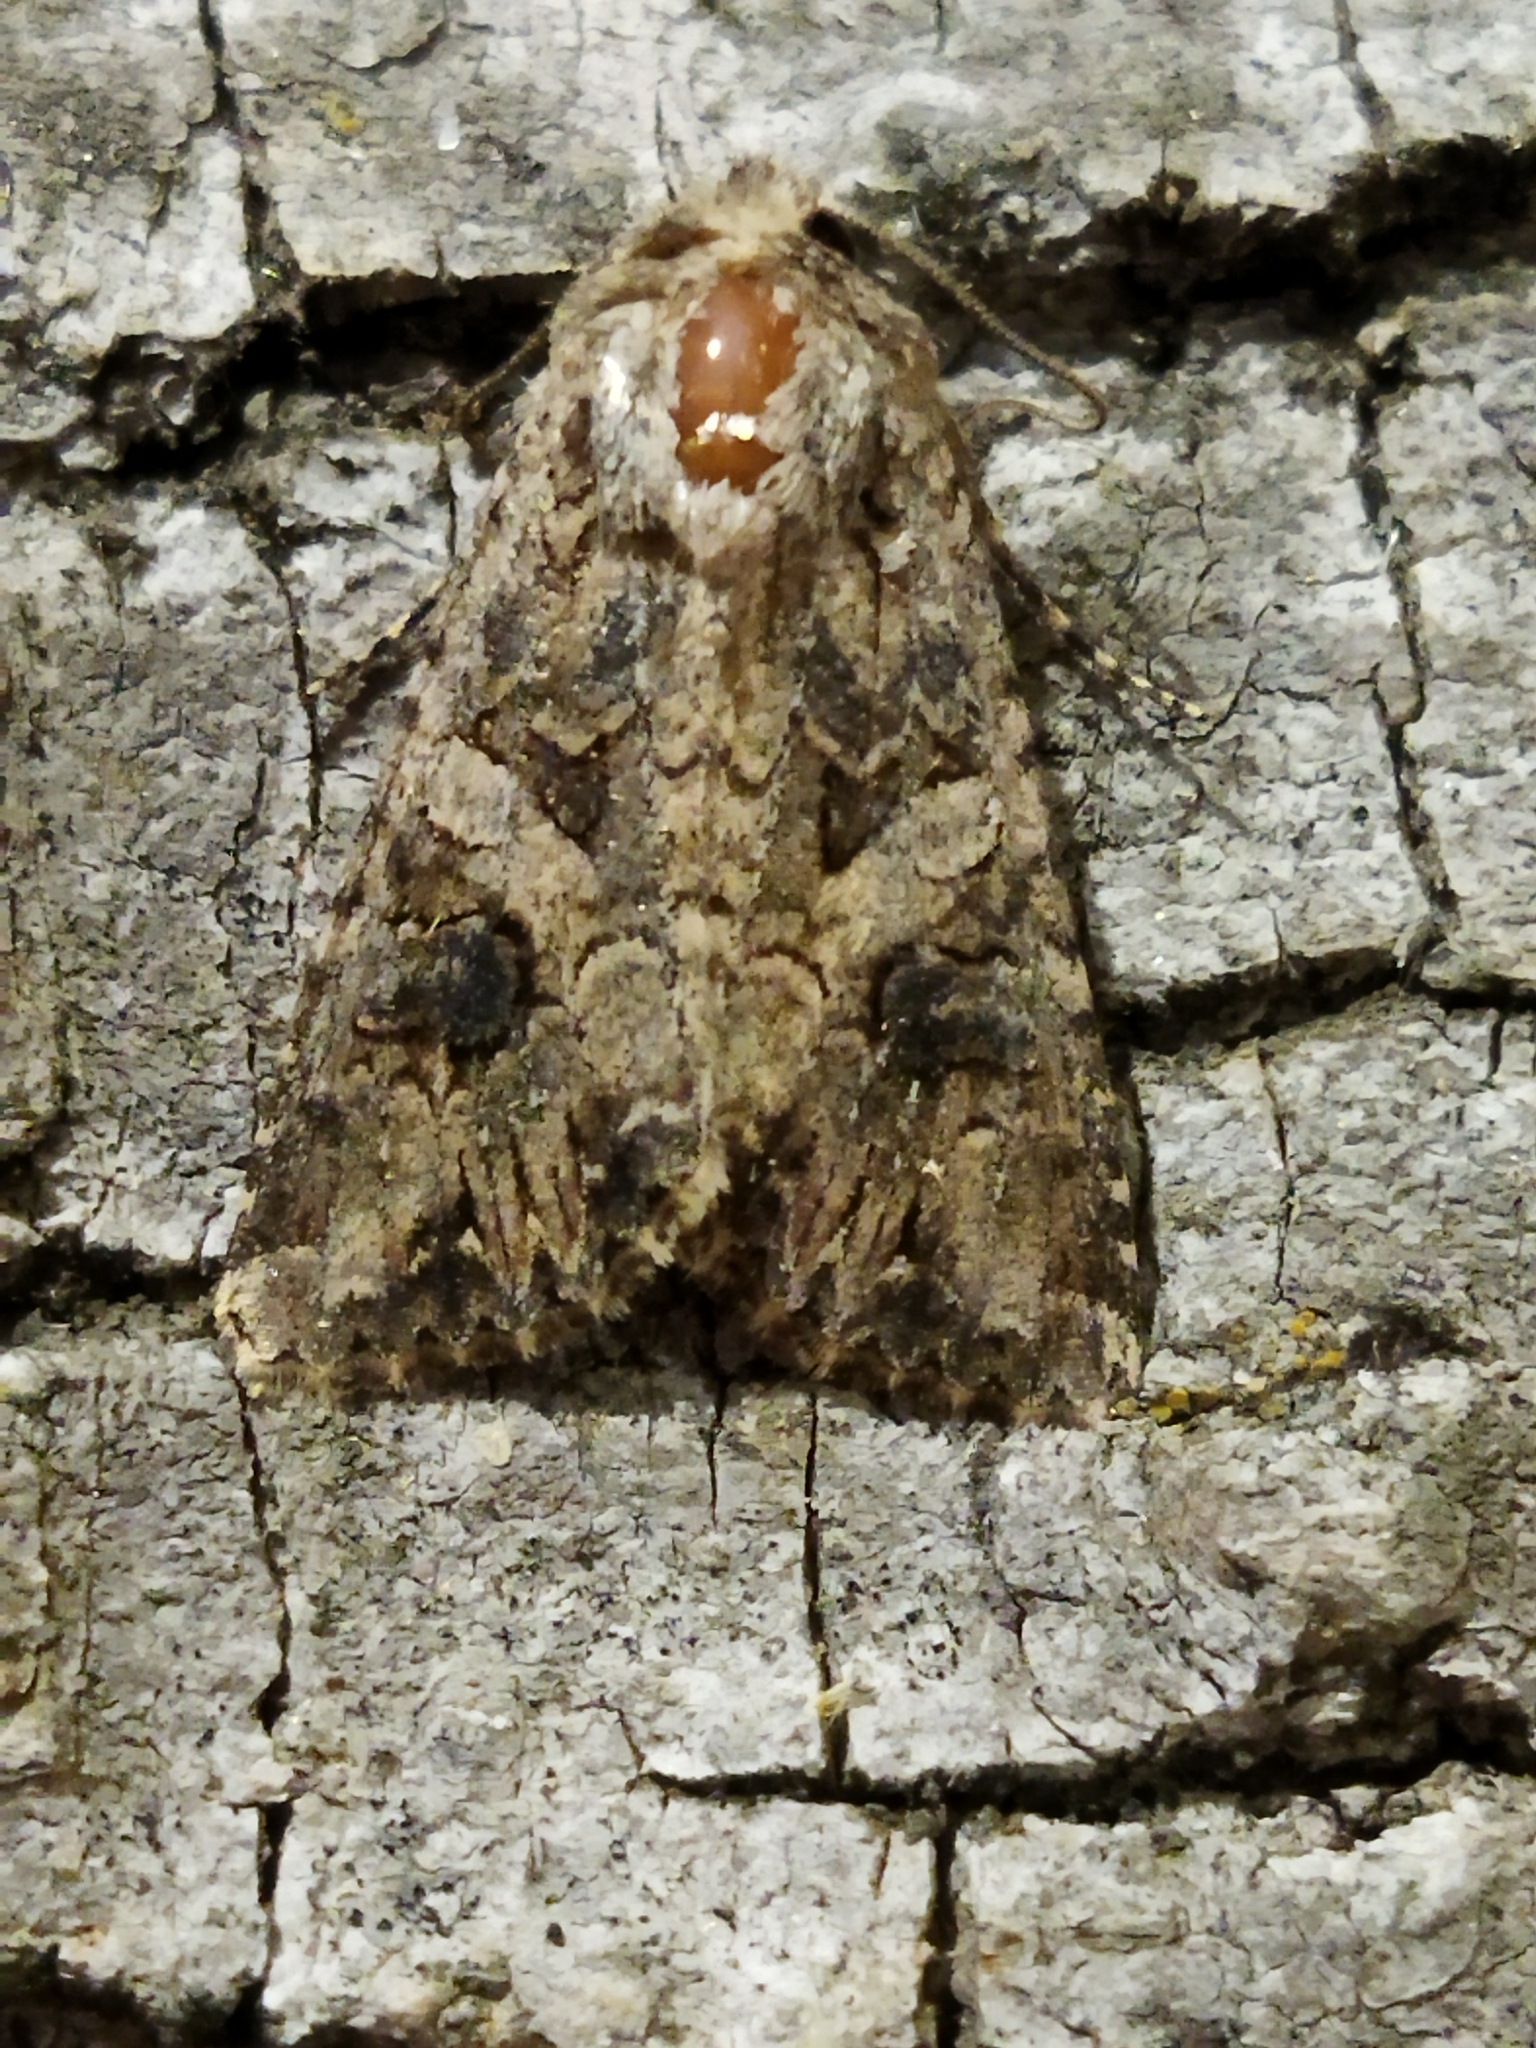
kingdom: Animalia
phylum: Arthropoda
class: Insecta
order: Lepidoptera
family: Noctuidae
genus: Anarta
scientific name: Anarta trifolii
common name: Clover cutworm moth
